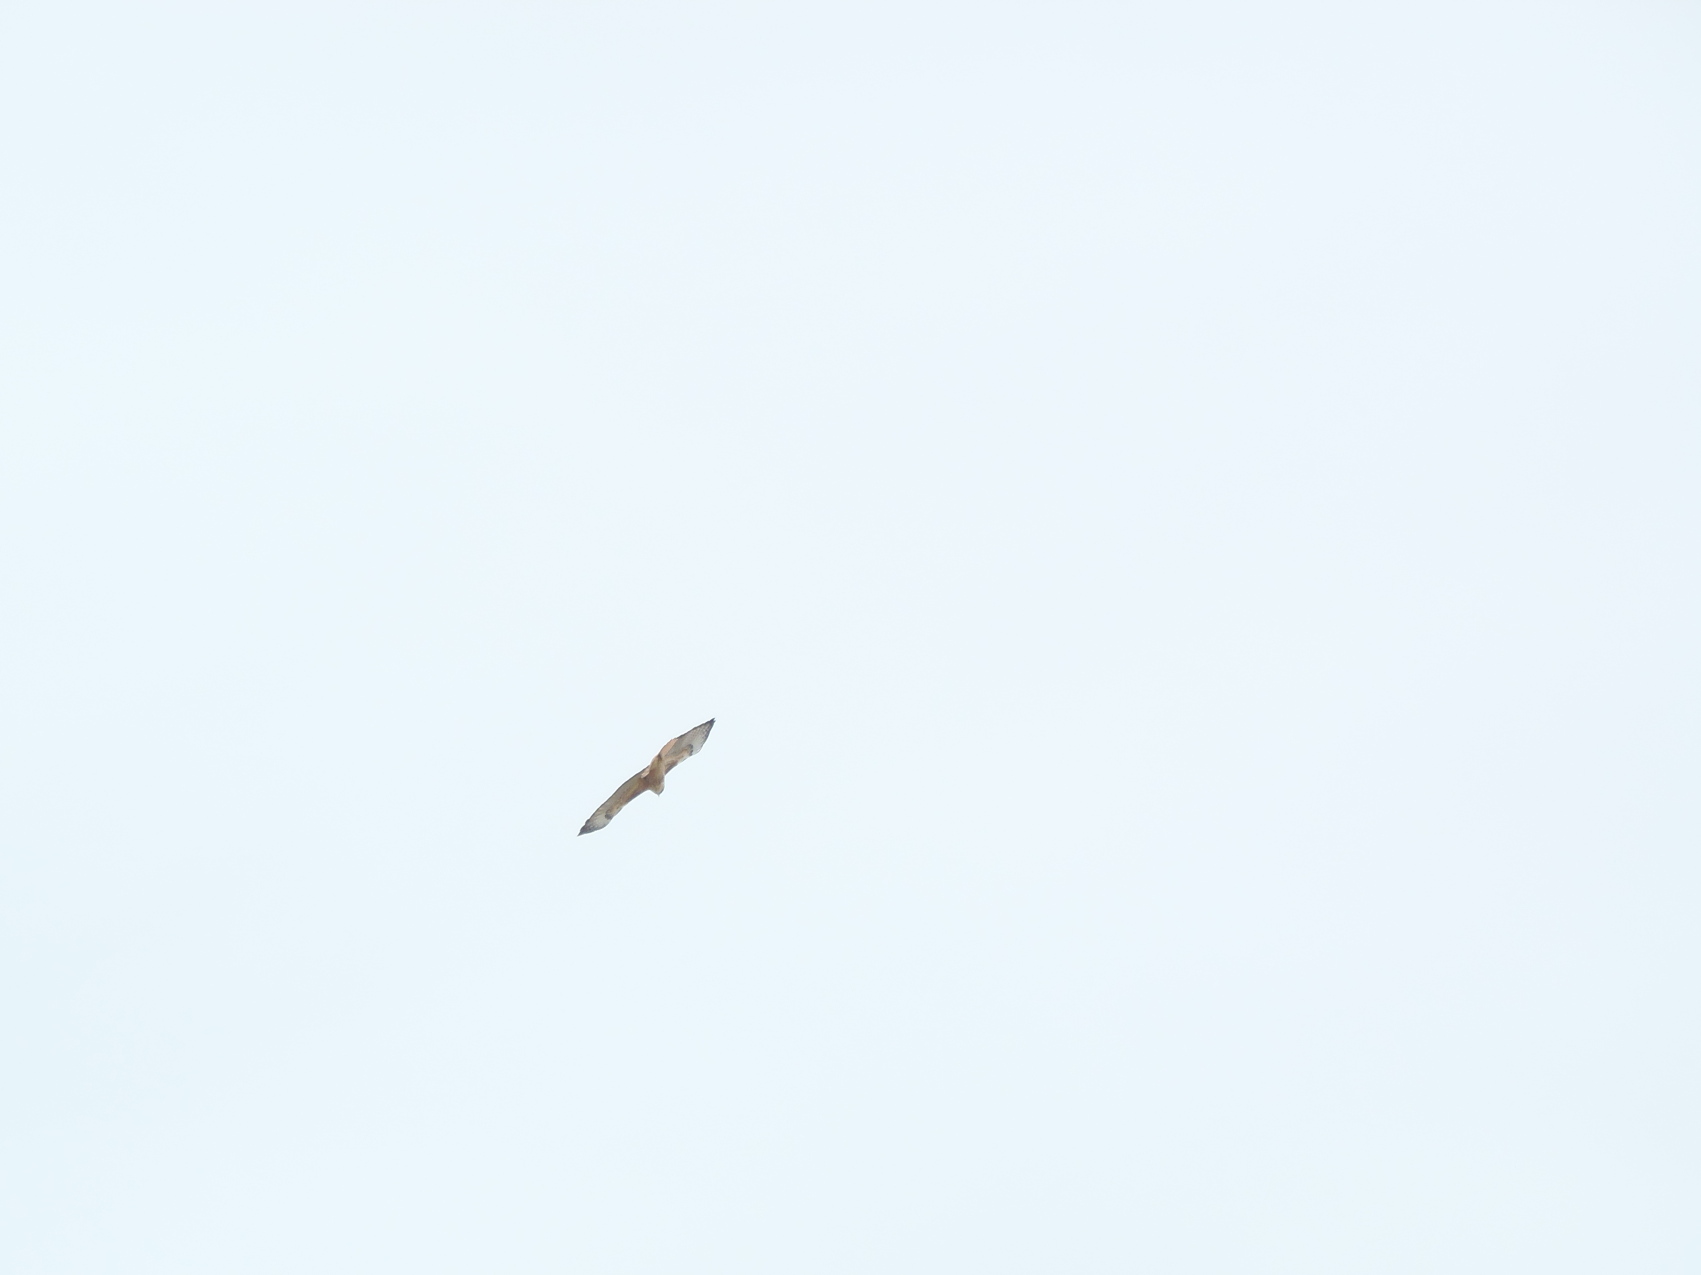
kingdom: Animalia
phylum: Chordata
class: Aves
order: Accipitriformes
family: Accipitridae
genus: Buteo
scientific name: Buteo jamaicensis
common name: Red-tailed hawk
